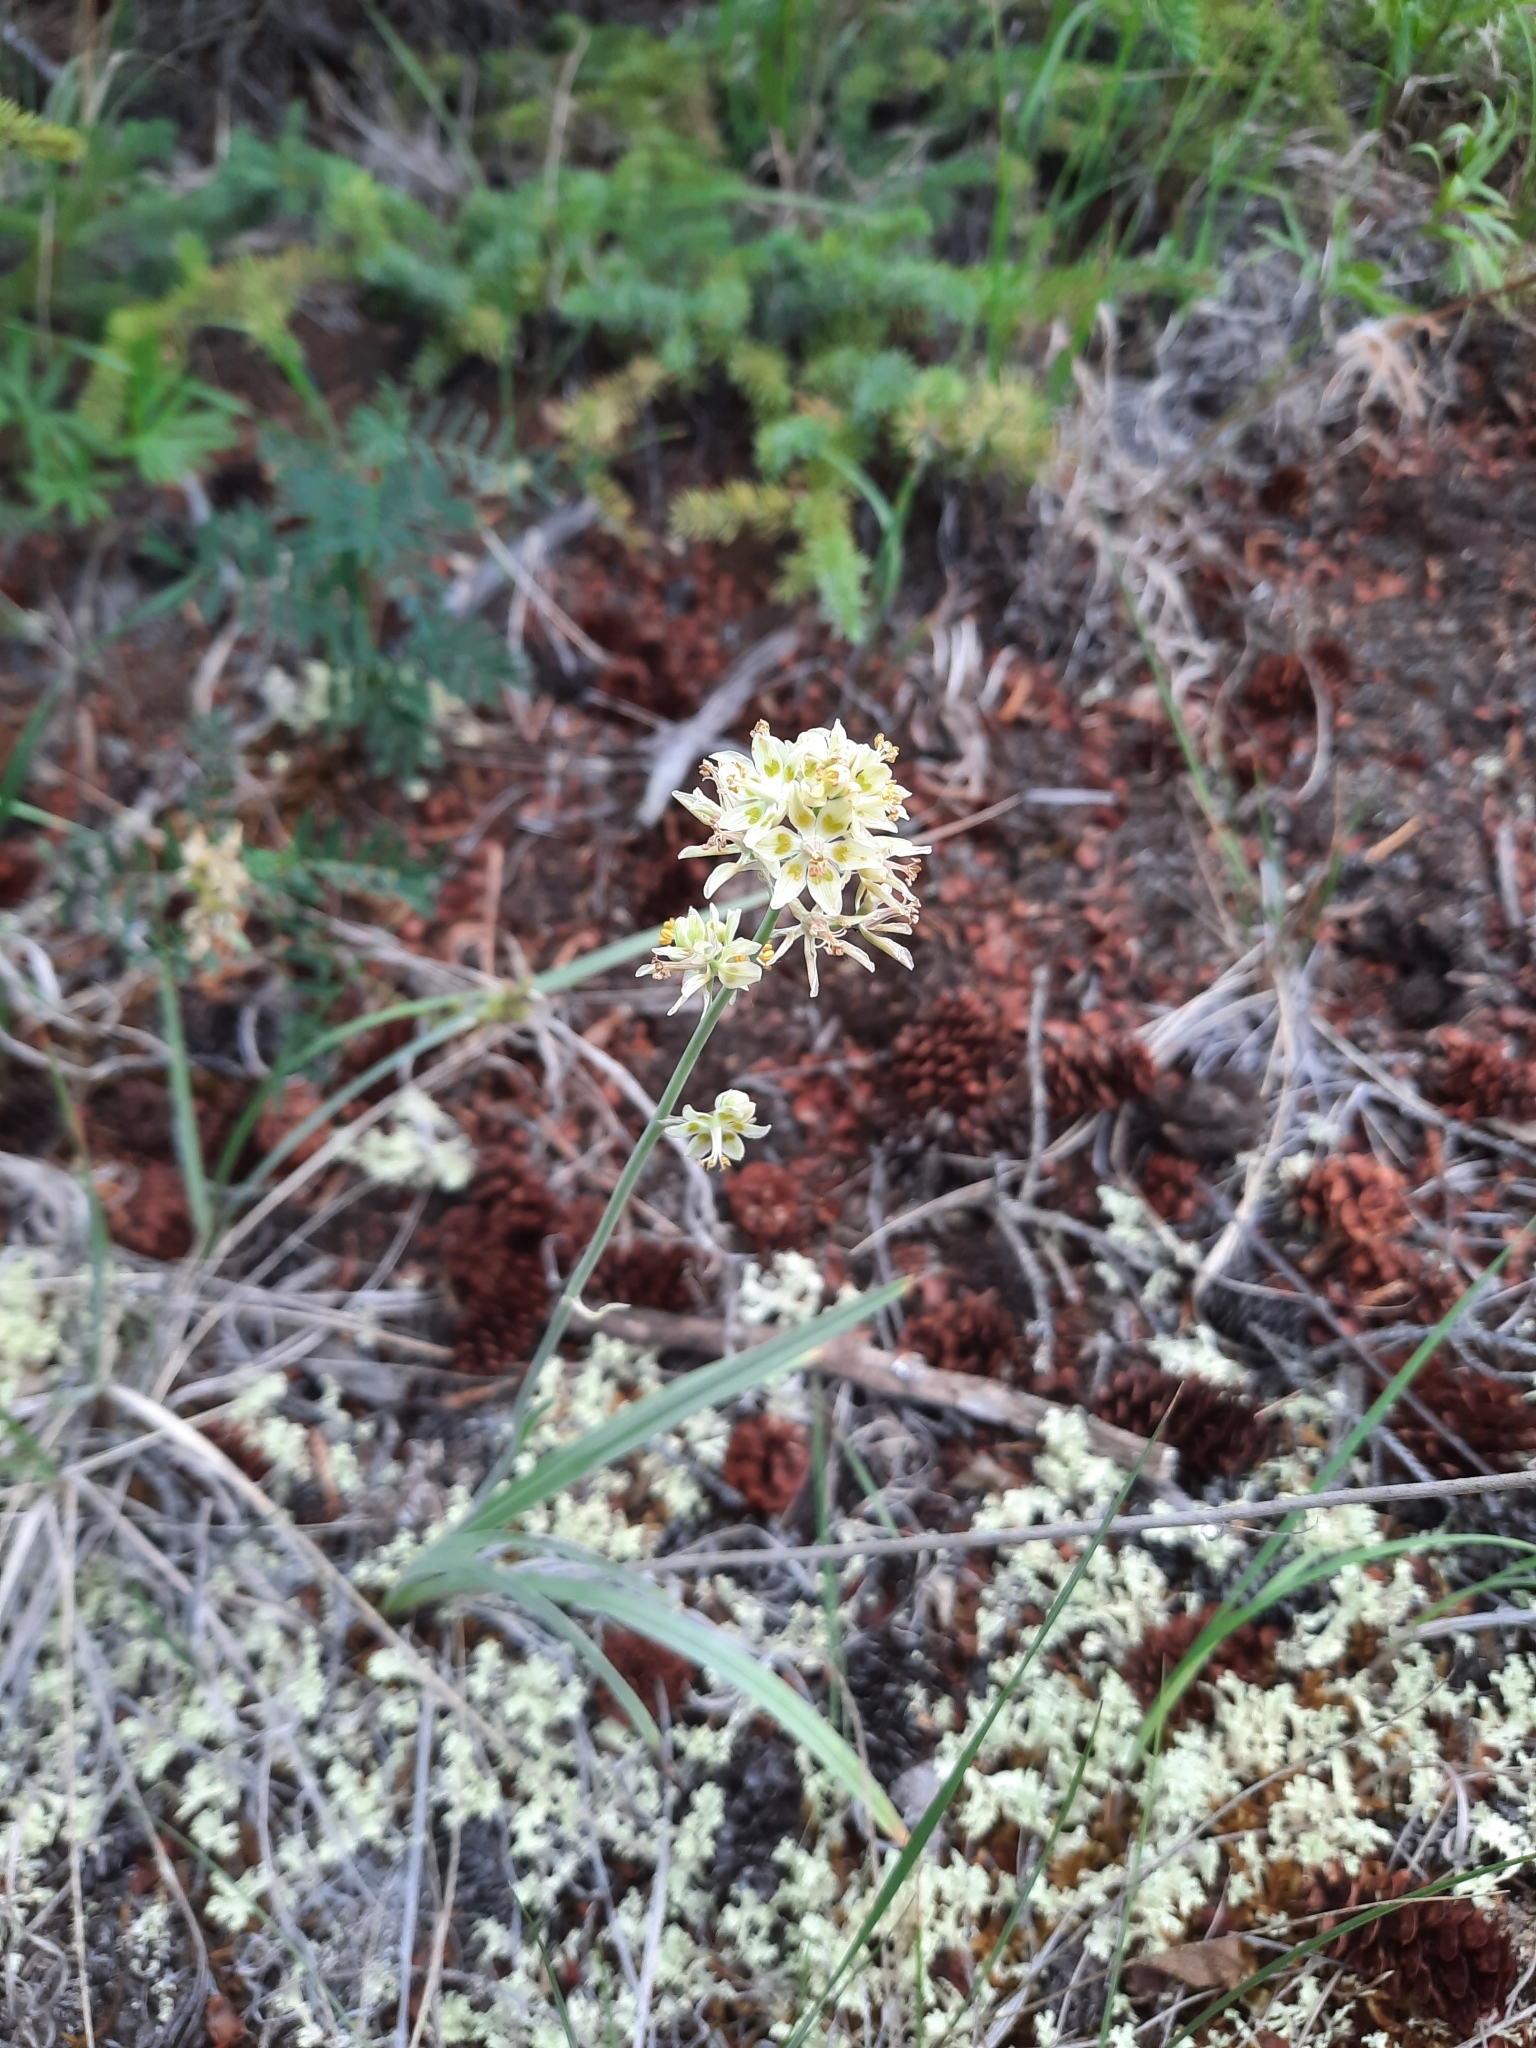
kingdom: Plantae
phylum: Tracheophyta
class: Liliopsida
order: Liliales
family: Melanthiaceae
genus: Anticlea
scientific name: Anticlea elegans
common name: Mountain death camas
